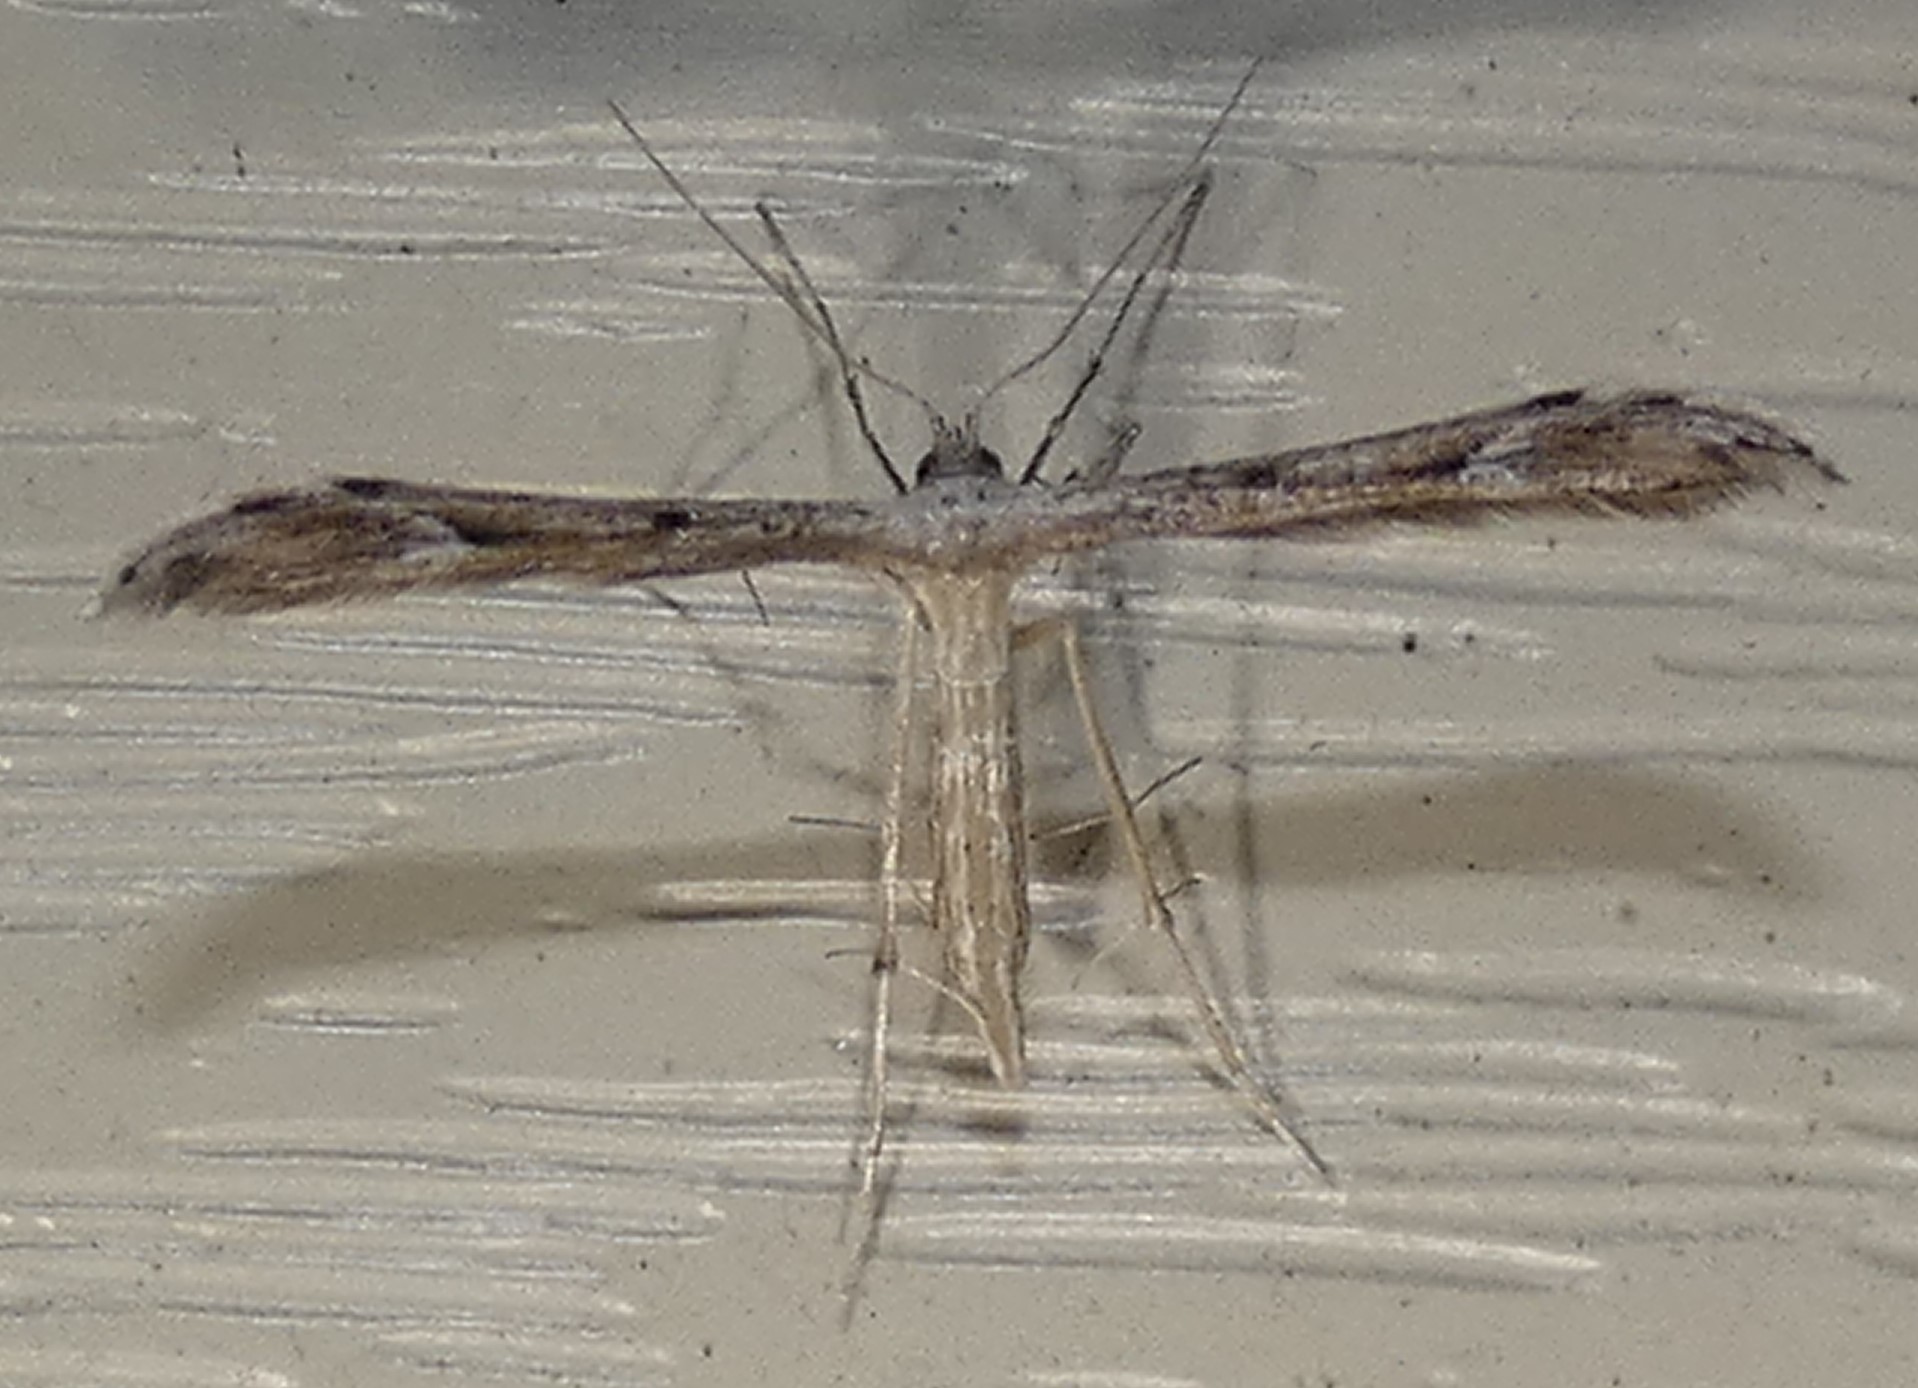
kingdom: Animalia
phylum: Arthropoda
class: Insecta
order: Lepidoptera
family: Pterophoridae
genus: Pselnophorus
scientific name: Pselnophorus belfragei
